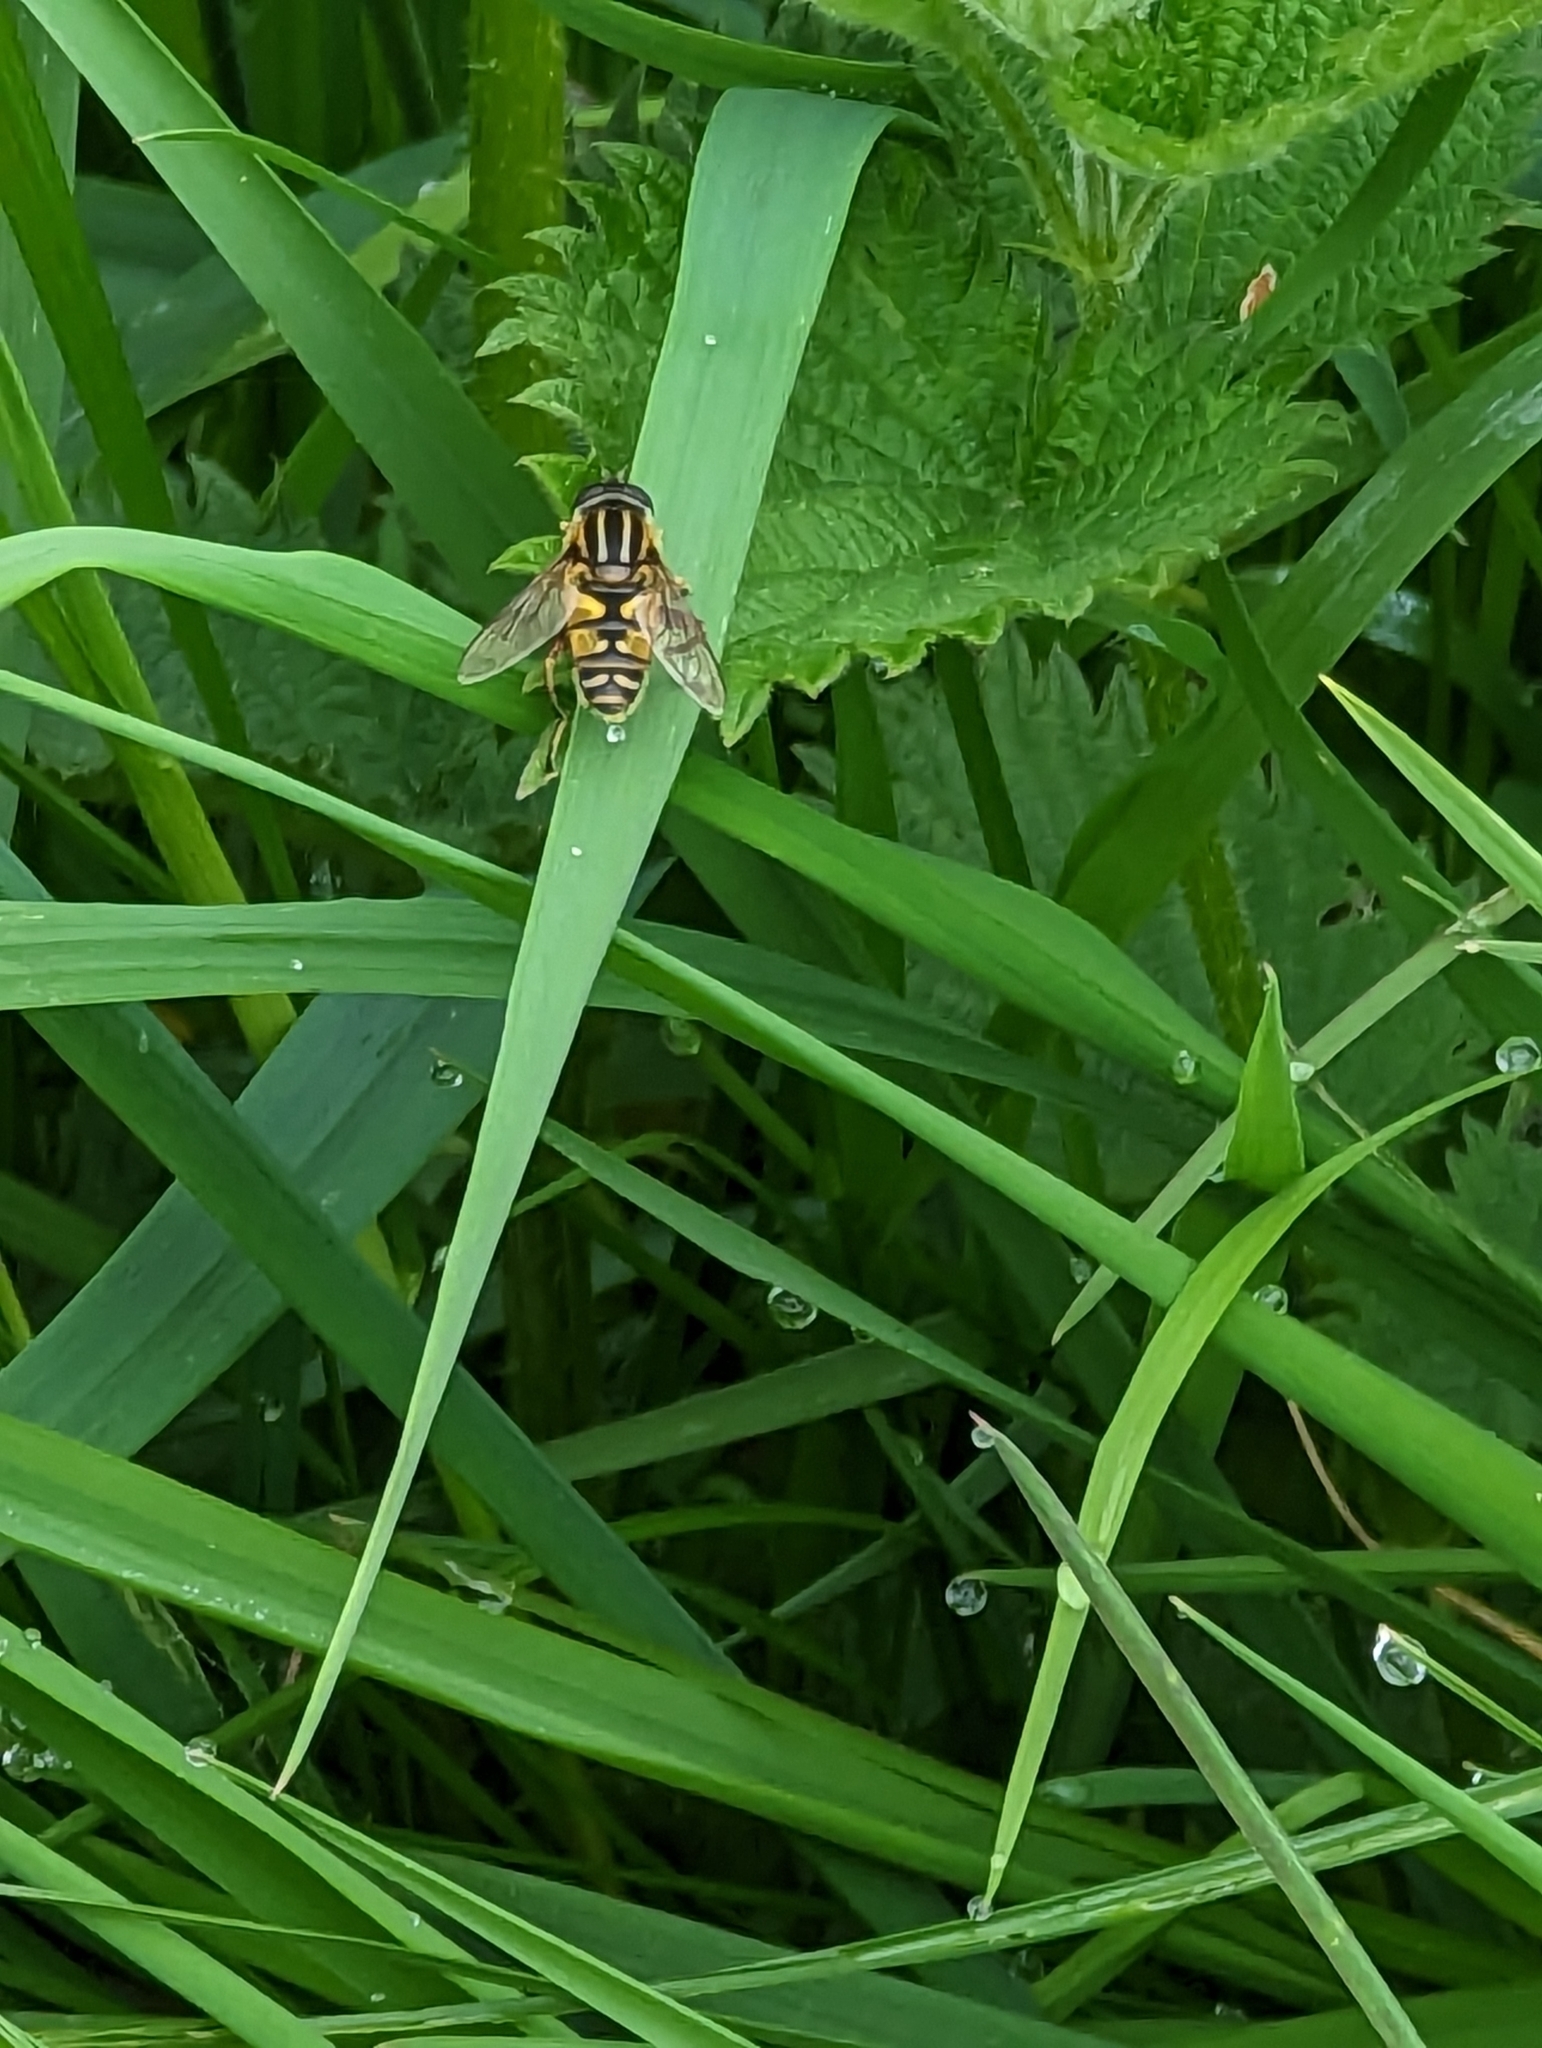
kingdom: Animalia
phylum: Arthropoda
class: Insecta
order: Diptera
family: Syrphidae
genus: Helophilus
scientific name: Helophilus pendulus
